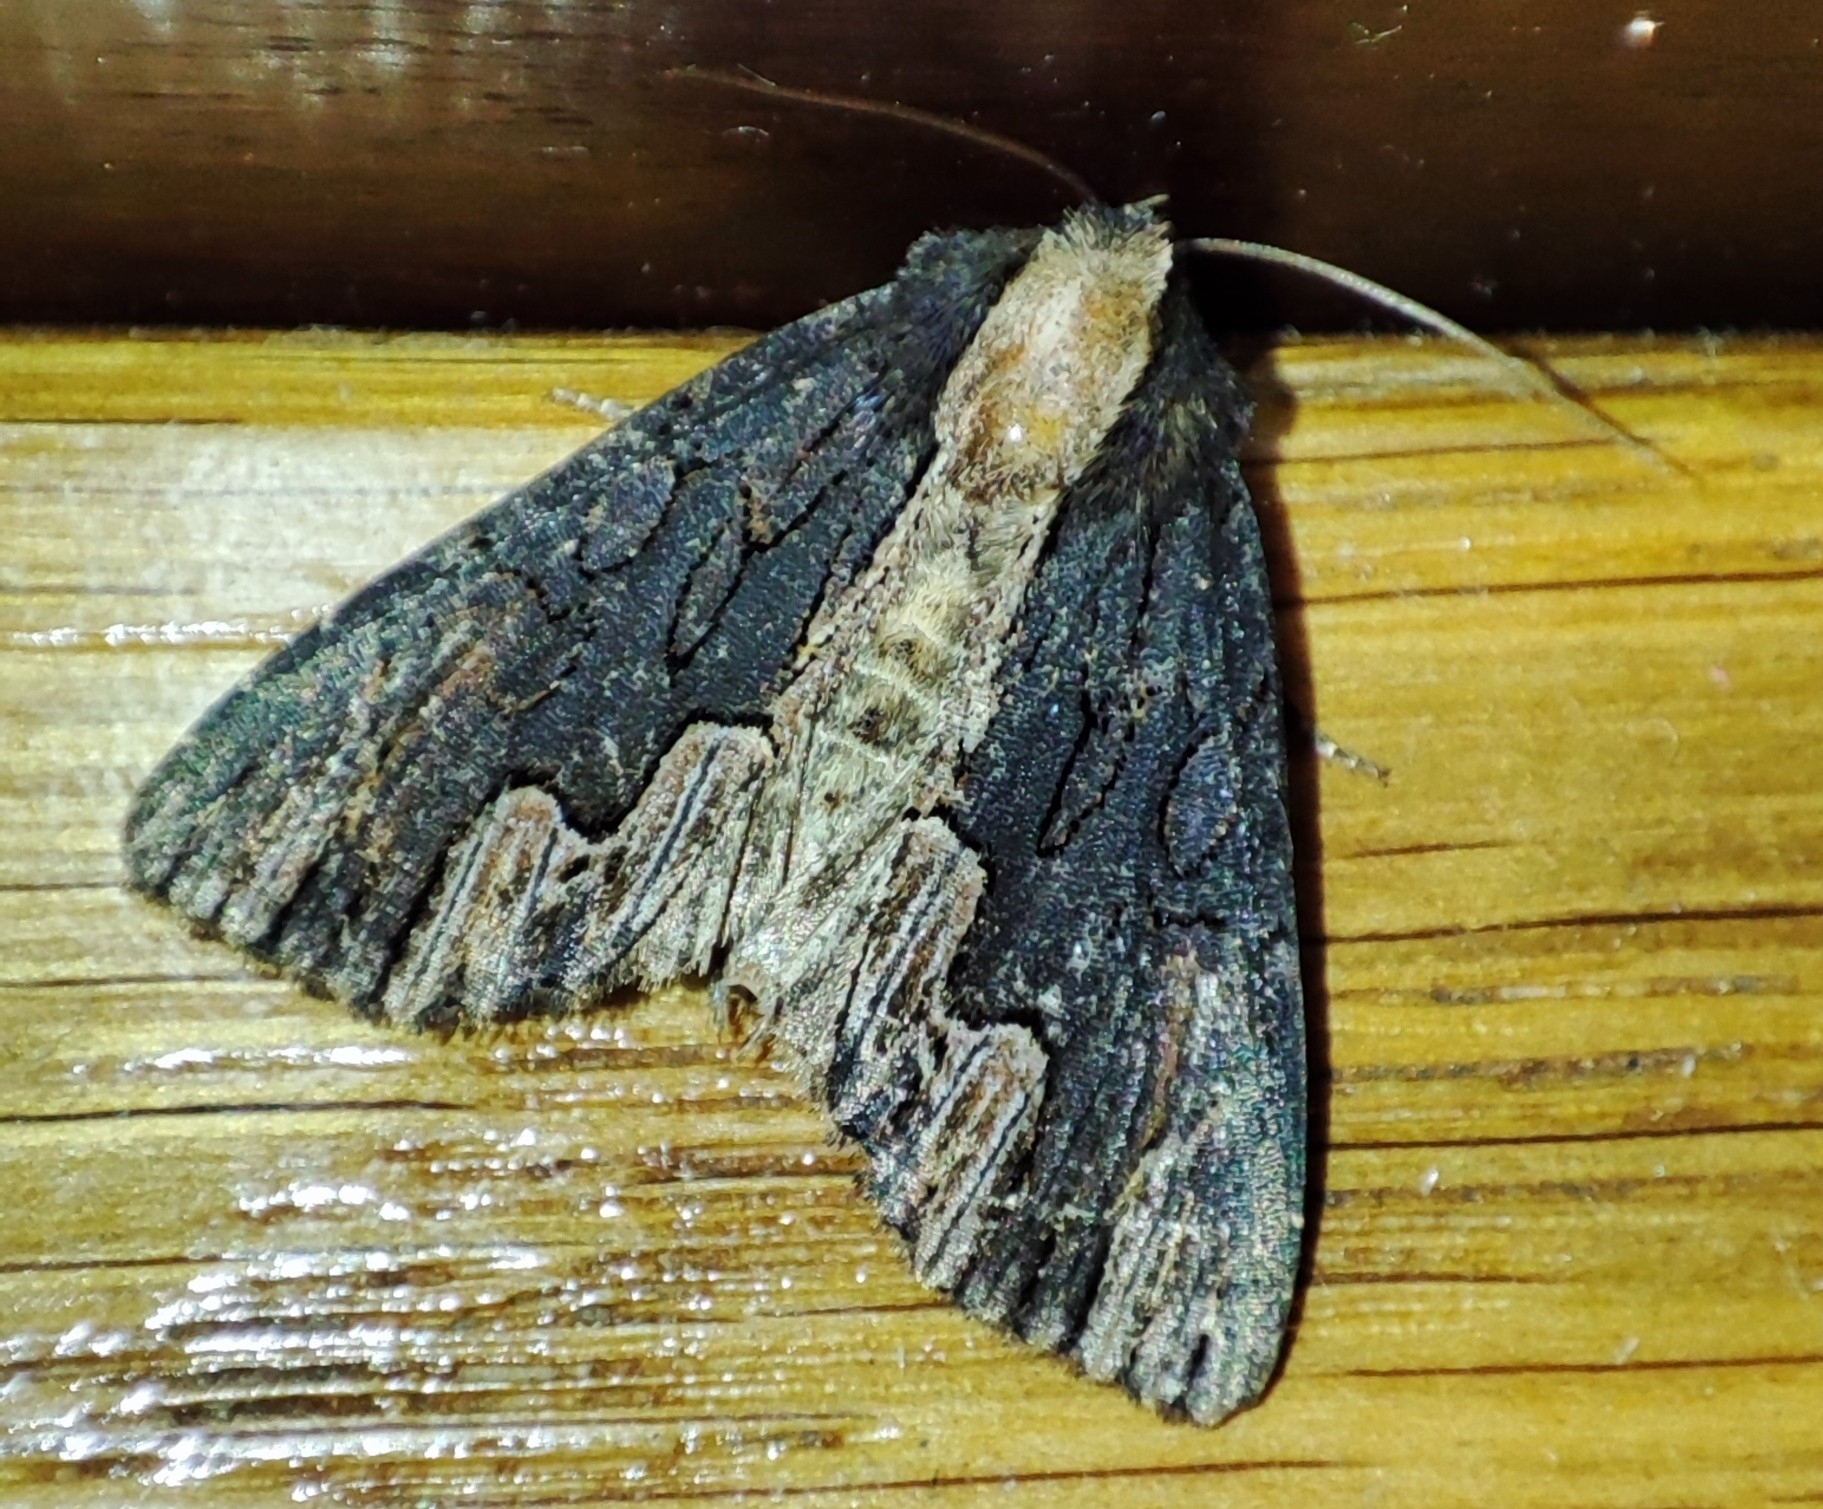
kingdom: Animalia
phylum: Arthropoda
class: Insecta
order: Lepidoptera
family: Noctuidae
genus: Dypterygia
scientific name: Dypterygia scabriuscula
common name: Bird's wing
